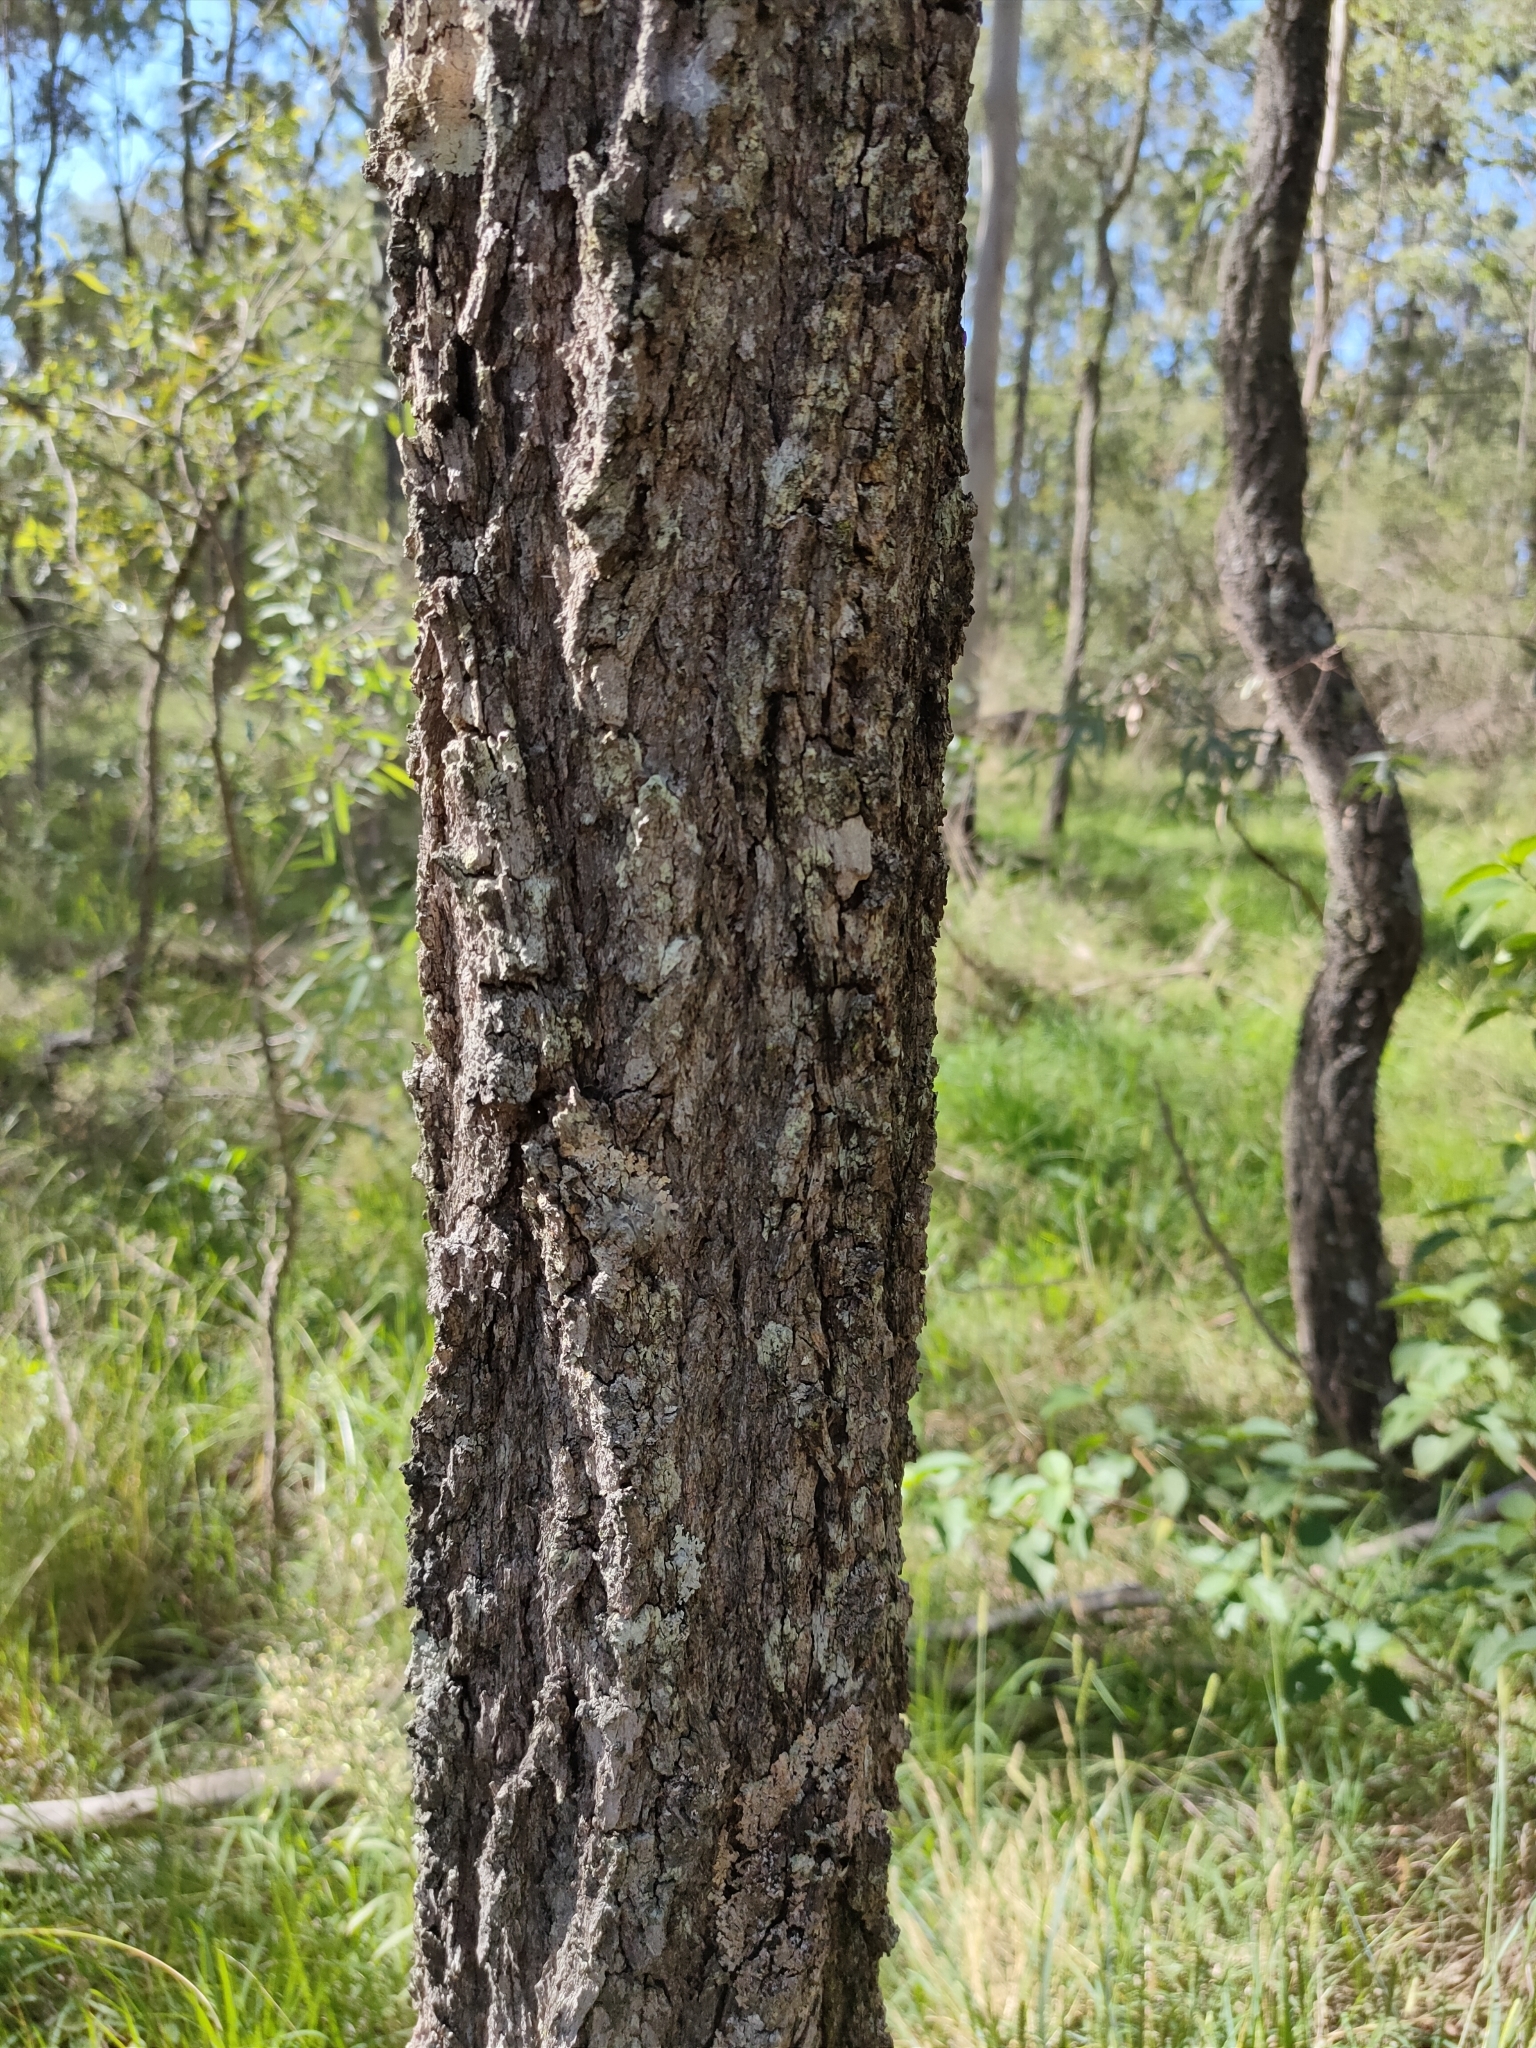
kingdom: Plantae
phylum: Tracheophyta
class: Magnoliopsida
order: Myrtales
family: Myrtaceae
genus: Eucalyptus
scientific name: Eucalyptus crebra
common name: Narrowleaf red ironbark
